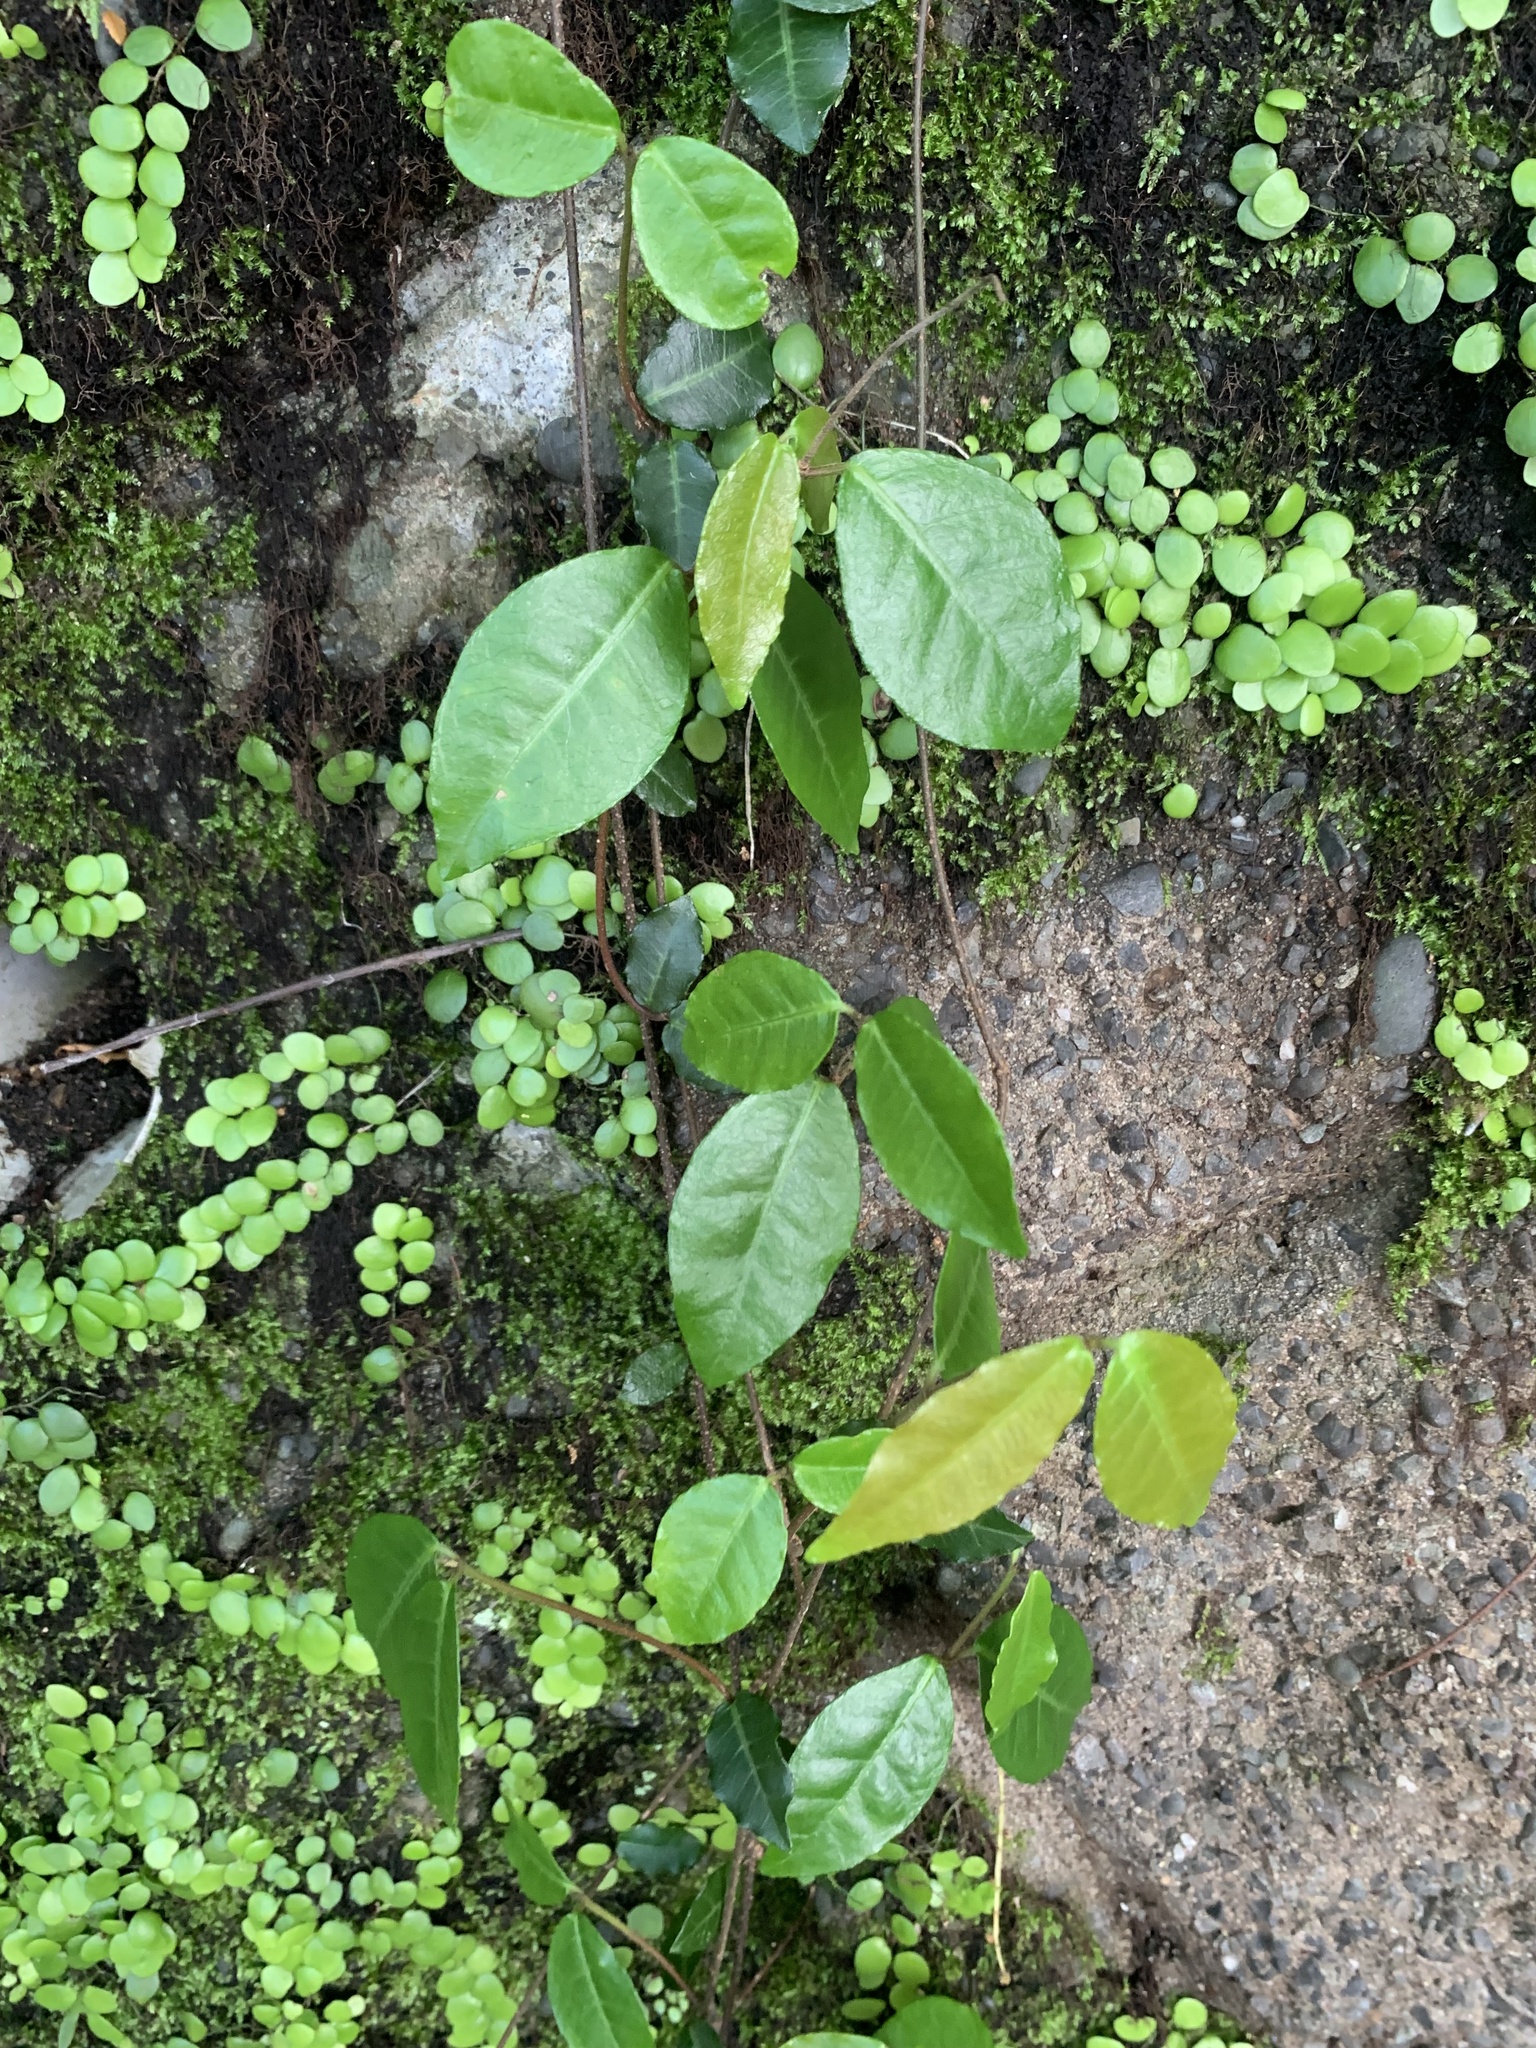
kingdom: Plantae
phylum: Tracheophyta
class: Magnoliopsida
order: Gentianales
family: Apocynaceae
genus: Trachelospermum
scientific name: Trachelospermum asiaticum
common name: Asiatic jasmine
